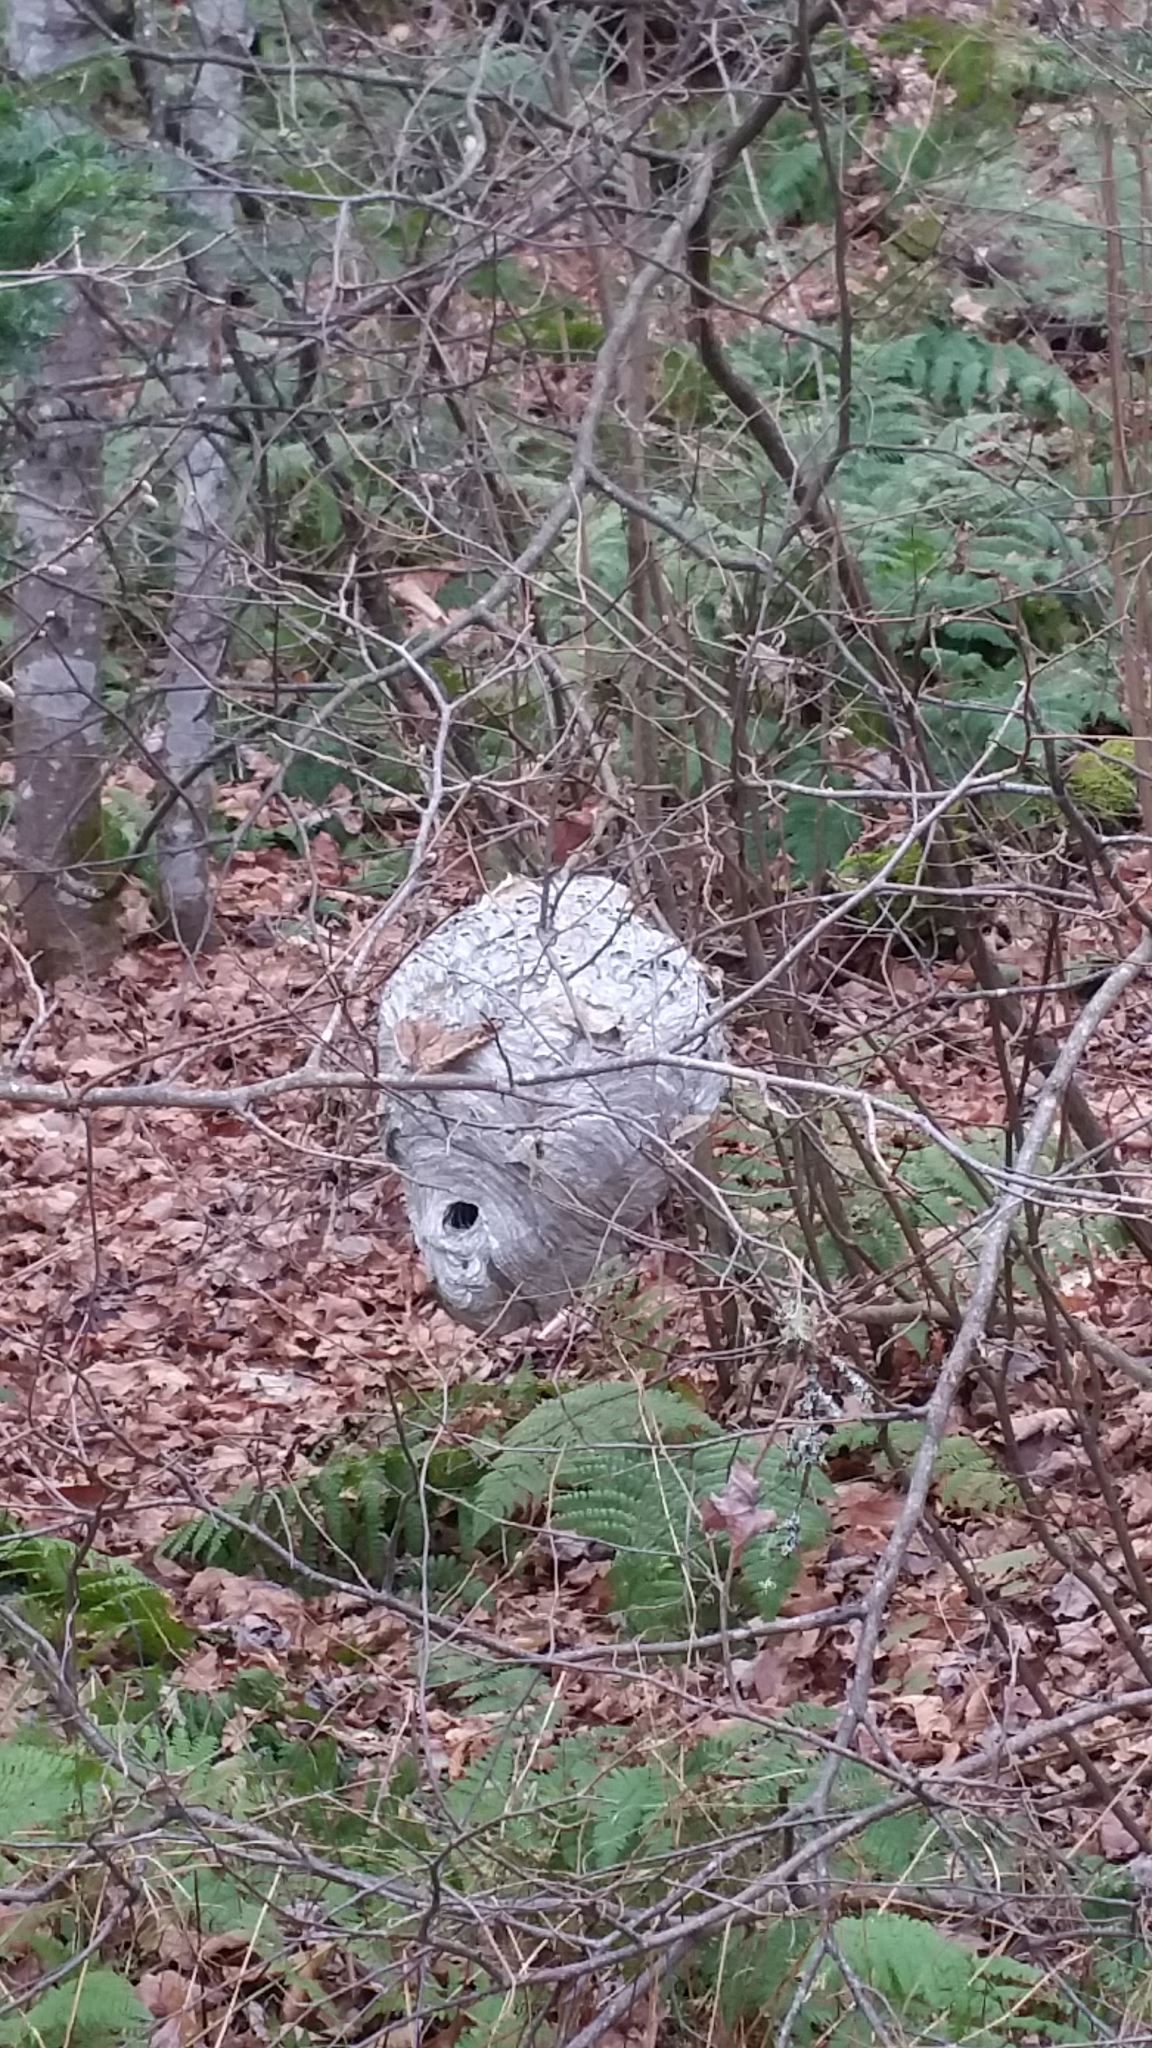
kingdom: Animalia
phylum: Arthropoda
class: Insecta
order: Hymenoptera
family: Vespidae
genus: Dolichovespula
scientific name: Dolichovespula
